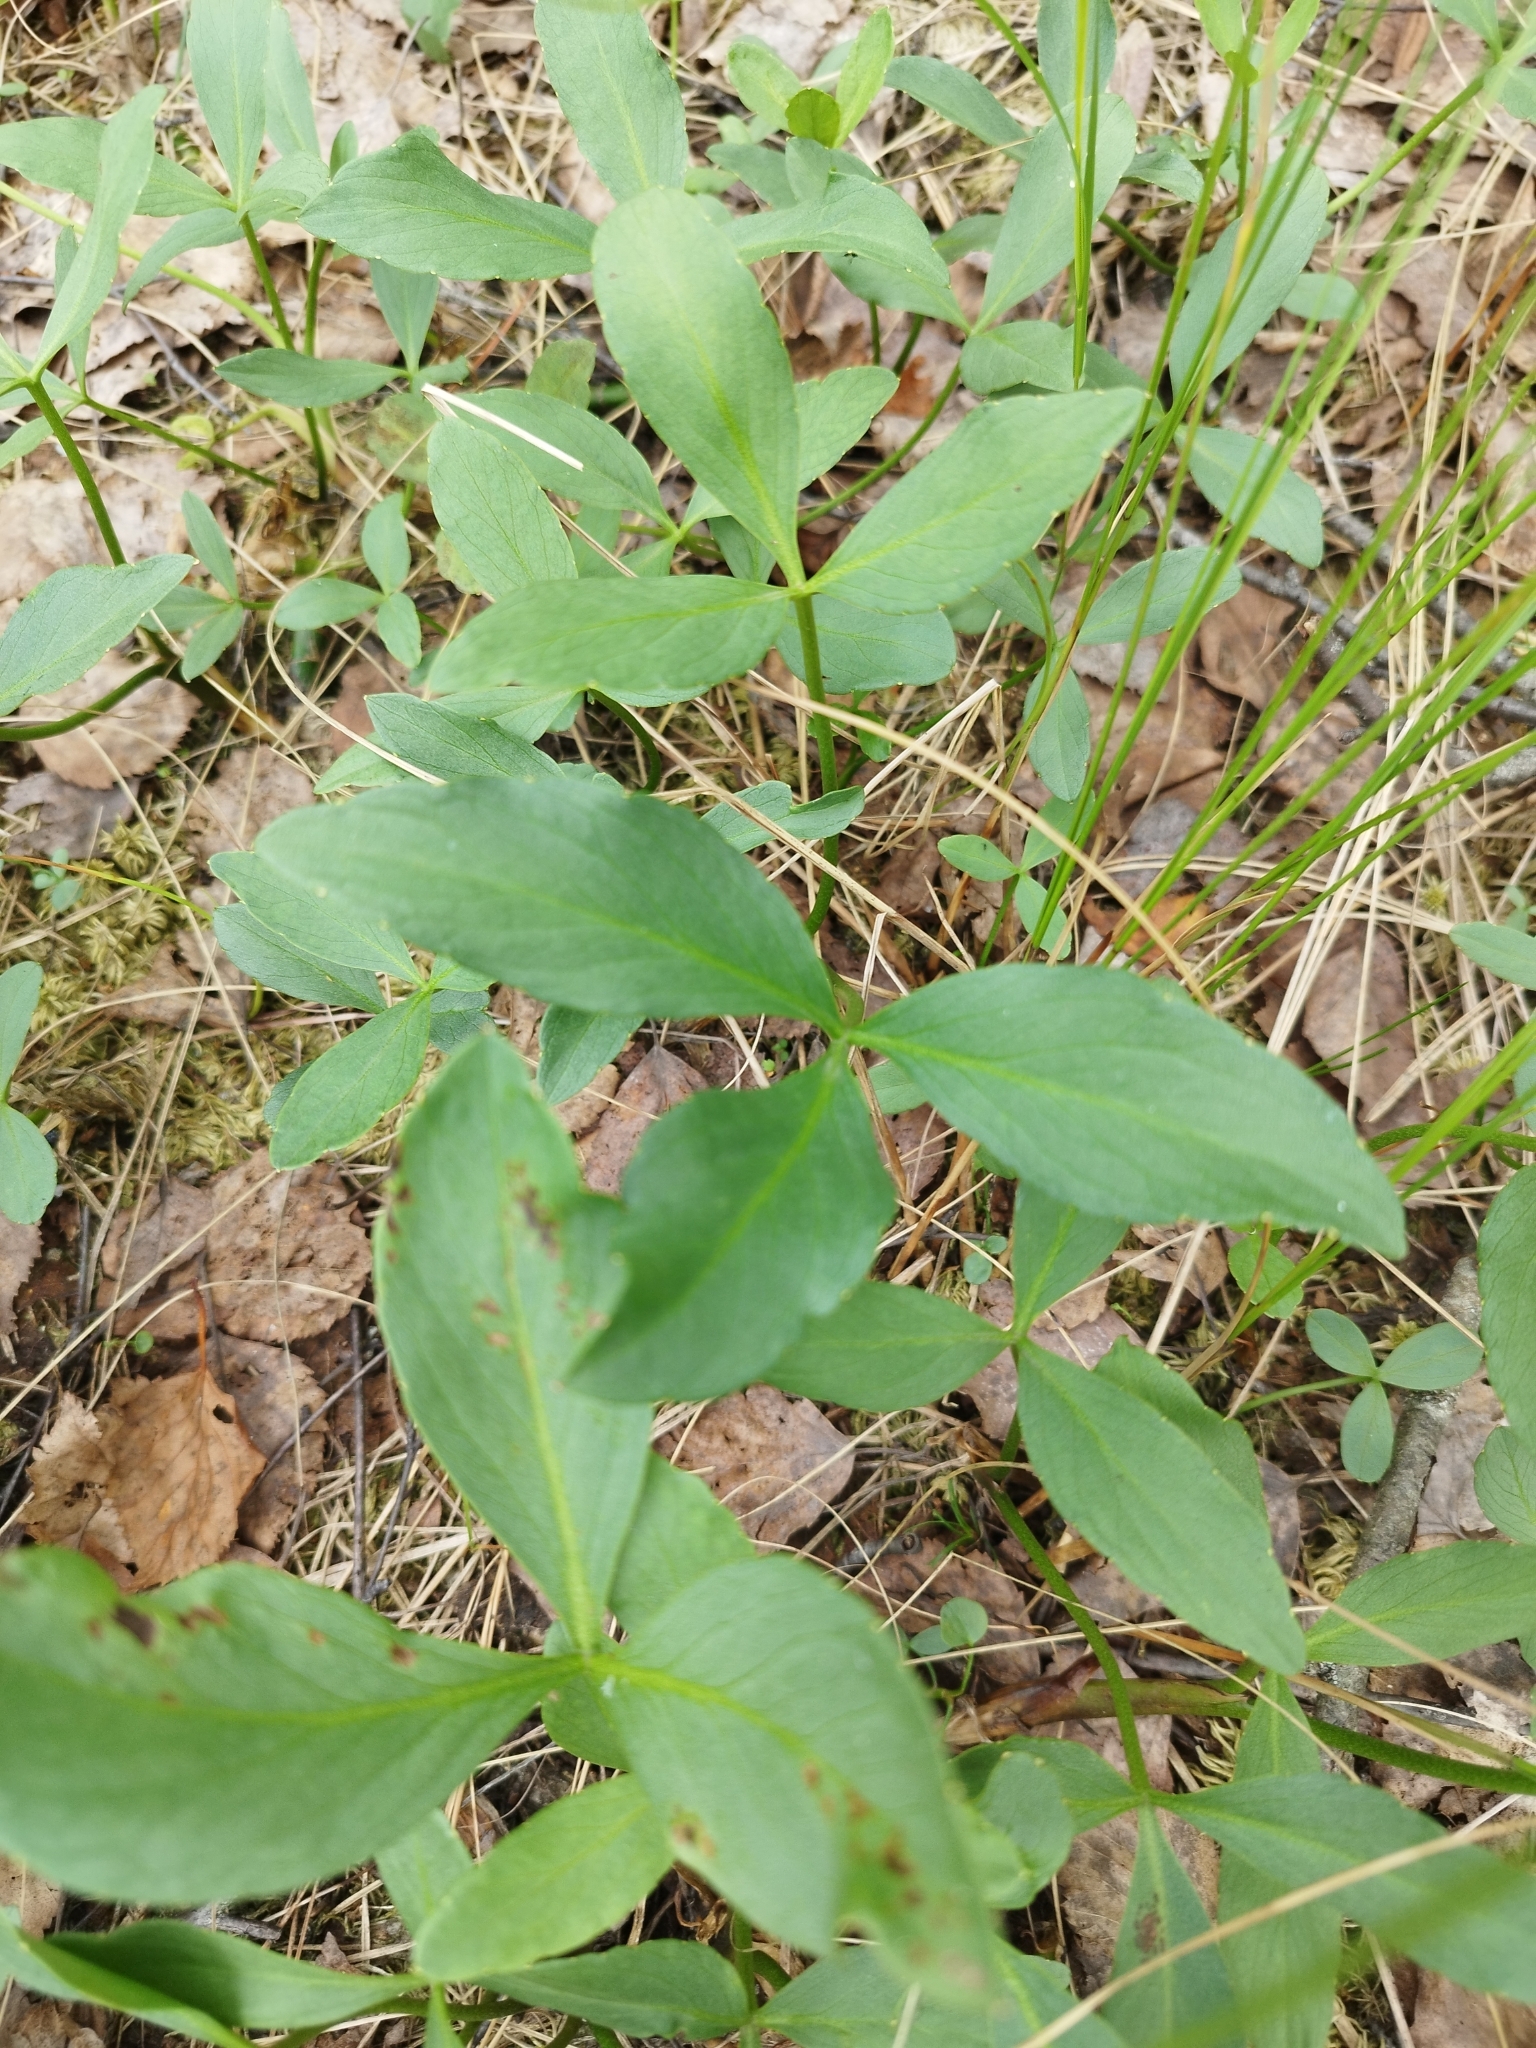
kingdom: Plantae
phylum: Tracheophyta
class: Magnoliopsida
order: Asterales
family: Menyanthaceae
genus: Menyanthes
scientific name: Menyanthes trifoliata
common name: Bogbean
